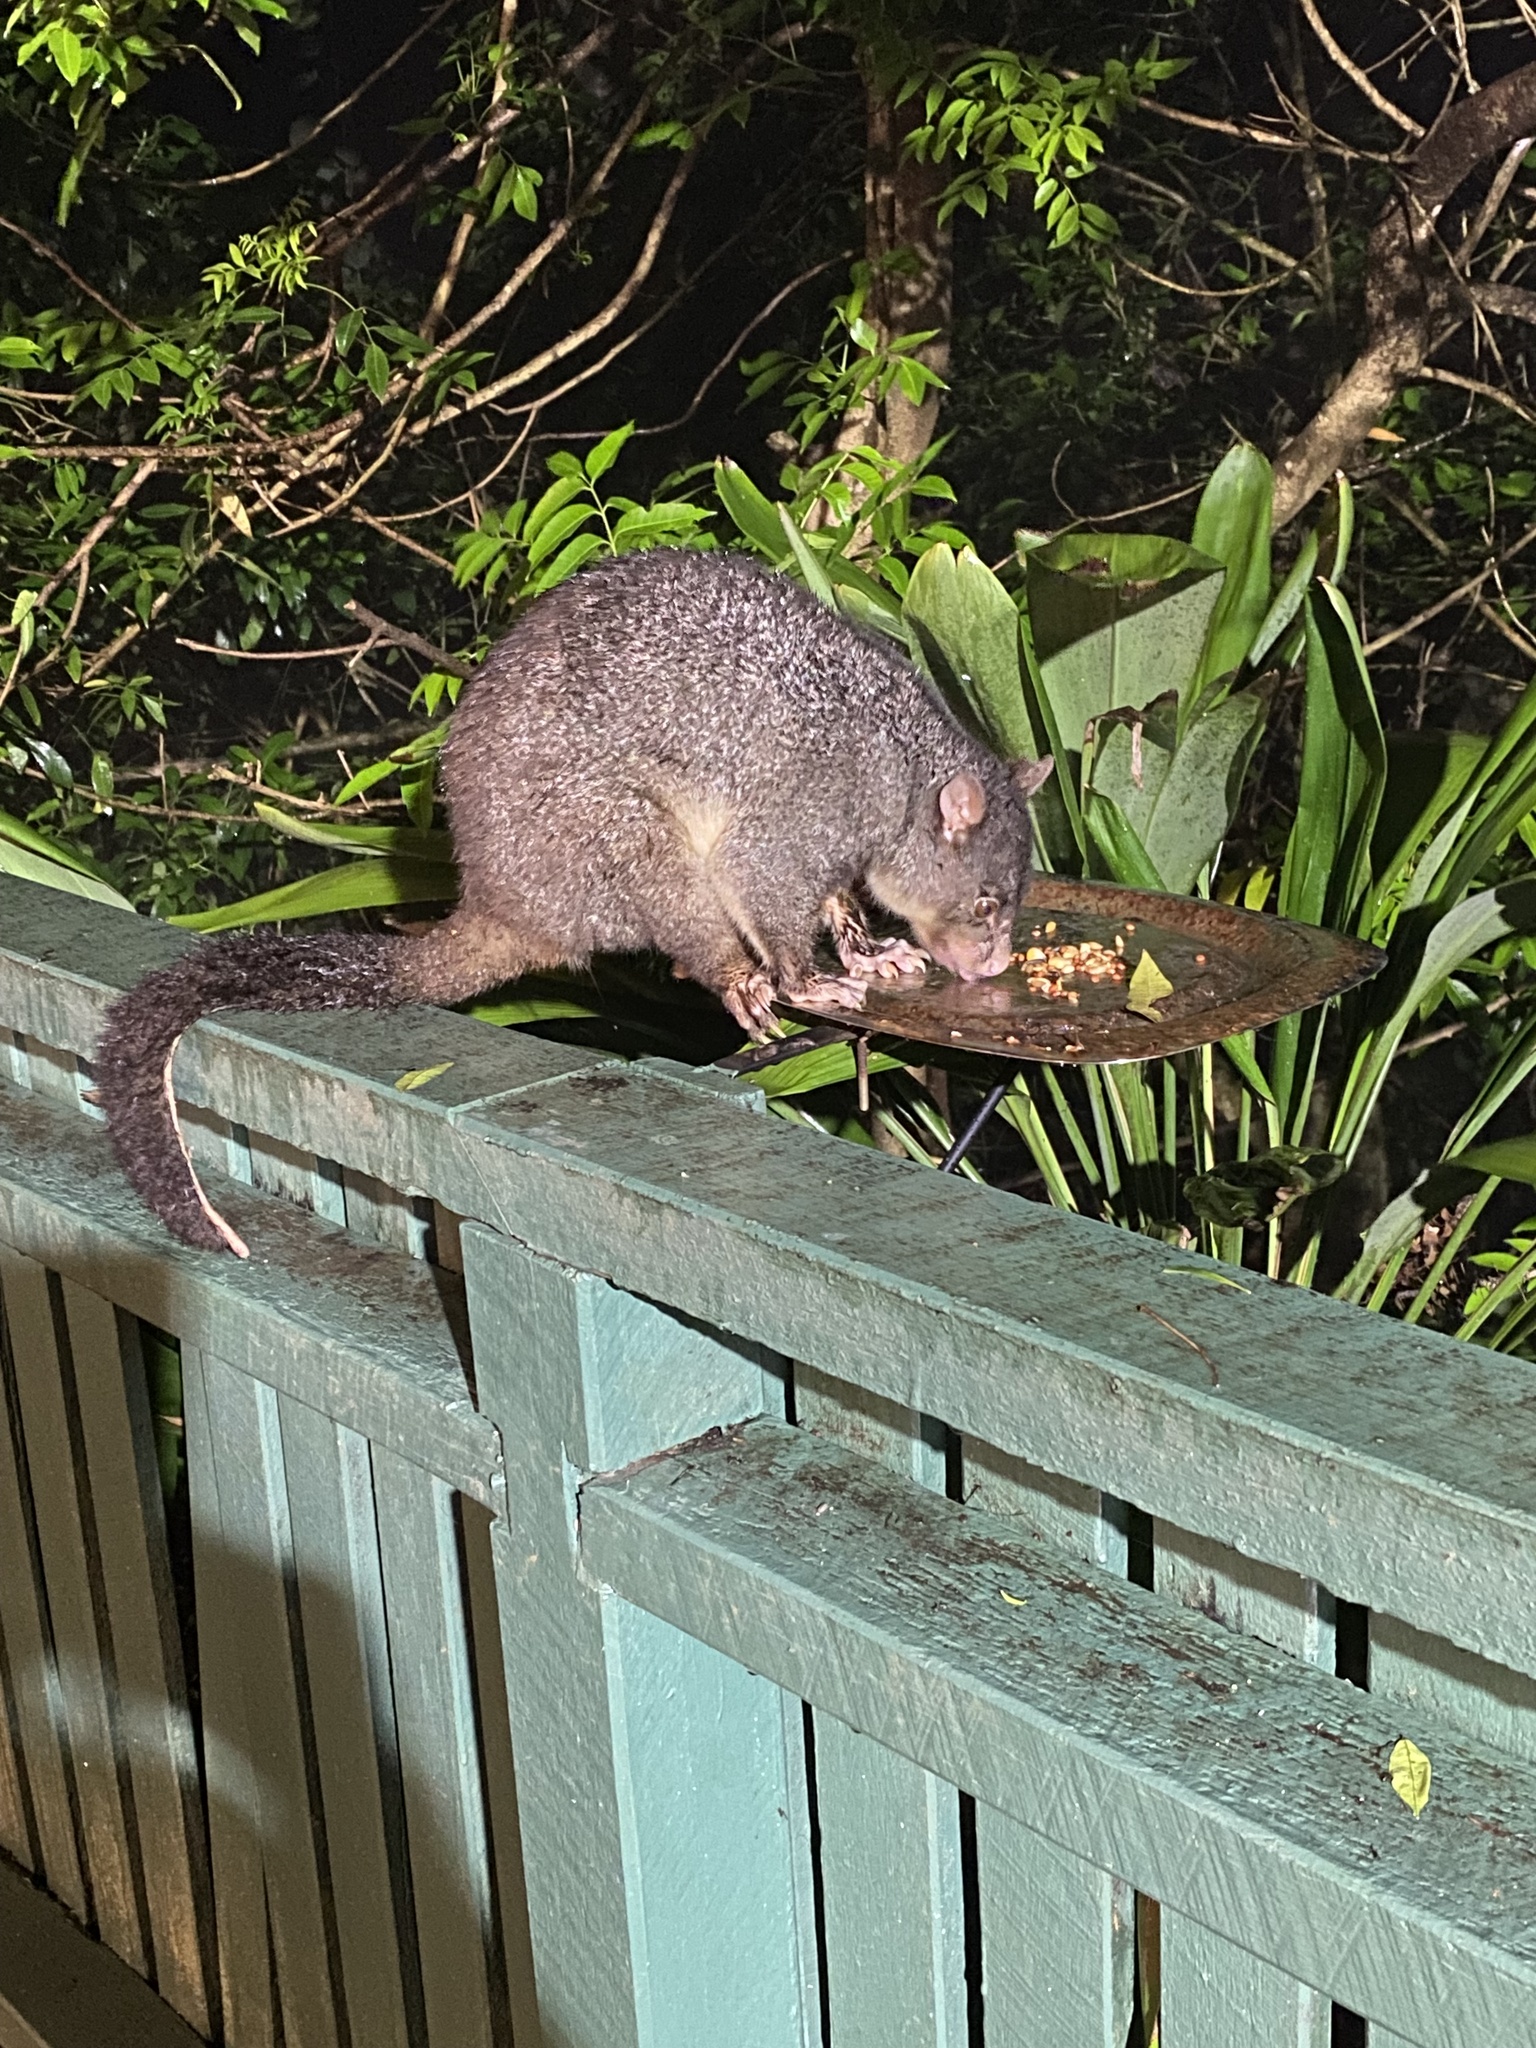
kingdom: Animalia
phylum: Chordata
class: Mammalia
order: Diprotodontia
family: Phalangeridae
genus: Trichosurus
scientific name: Trichosurus caninus
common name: Short-eared possum
